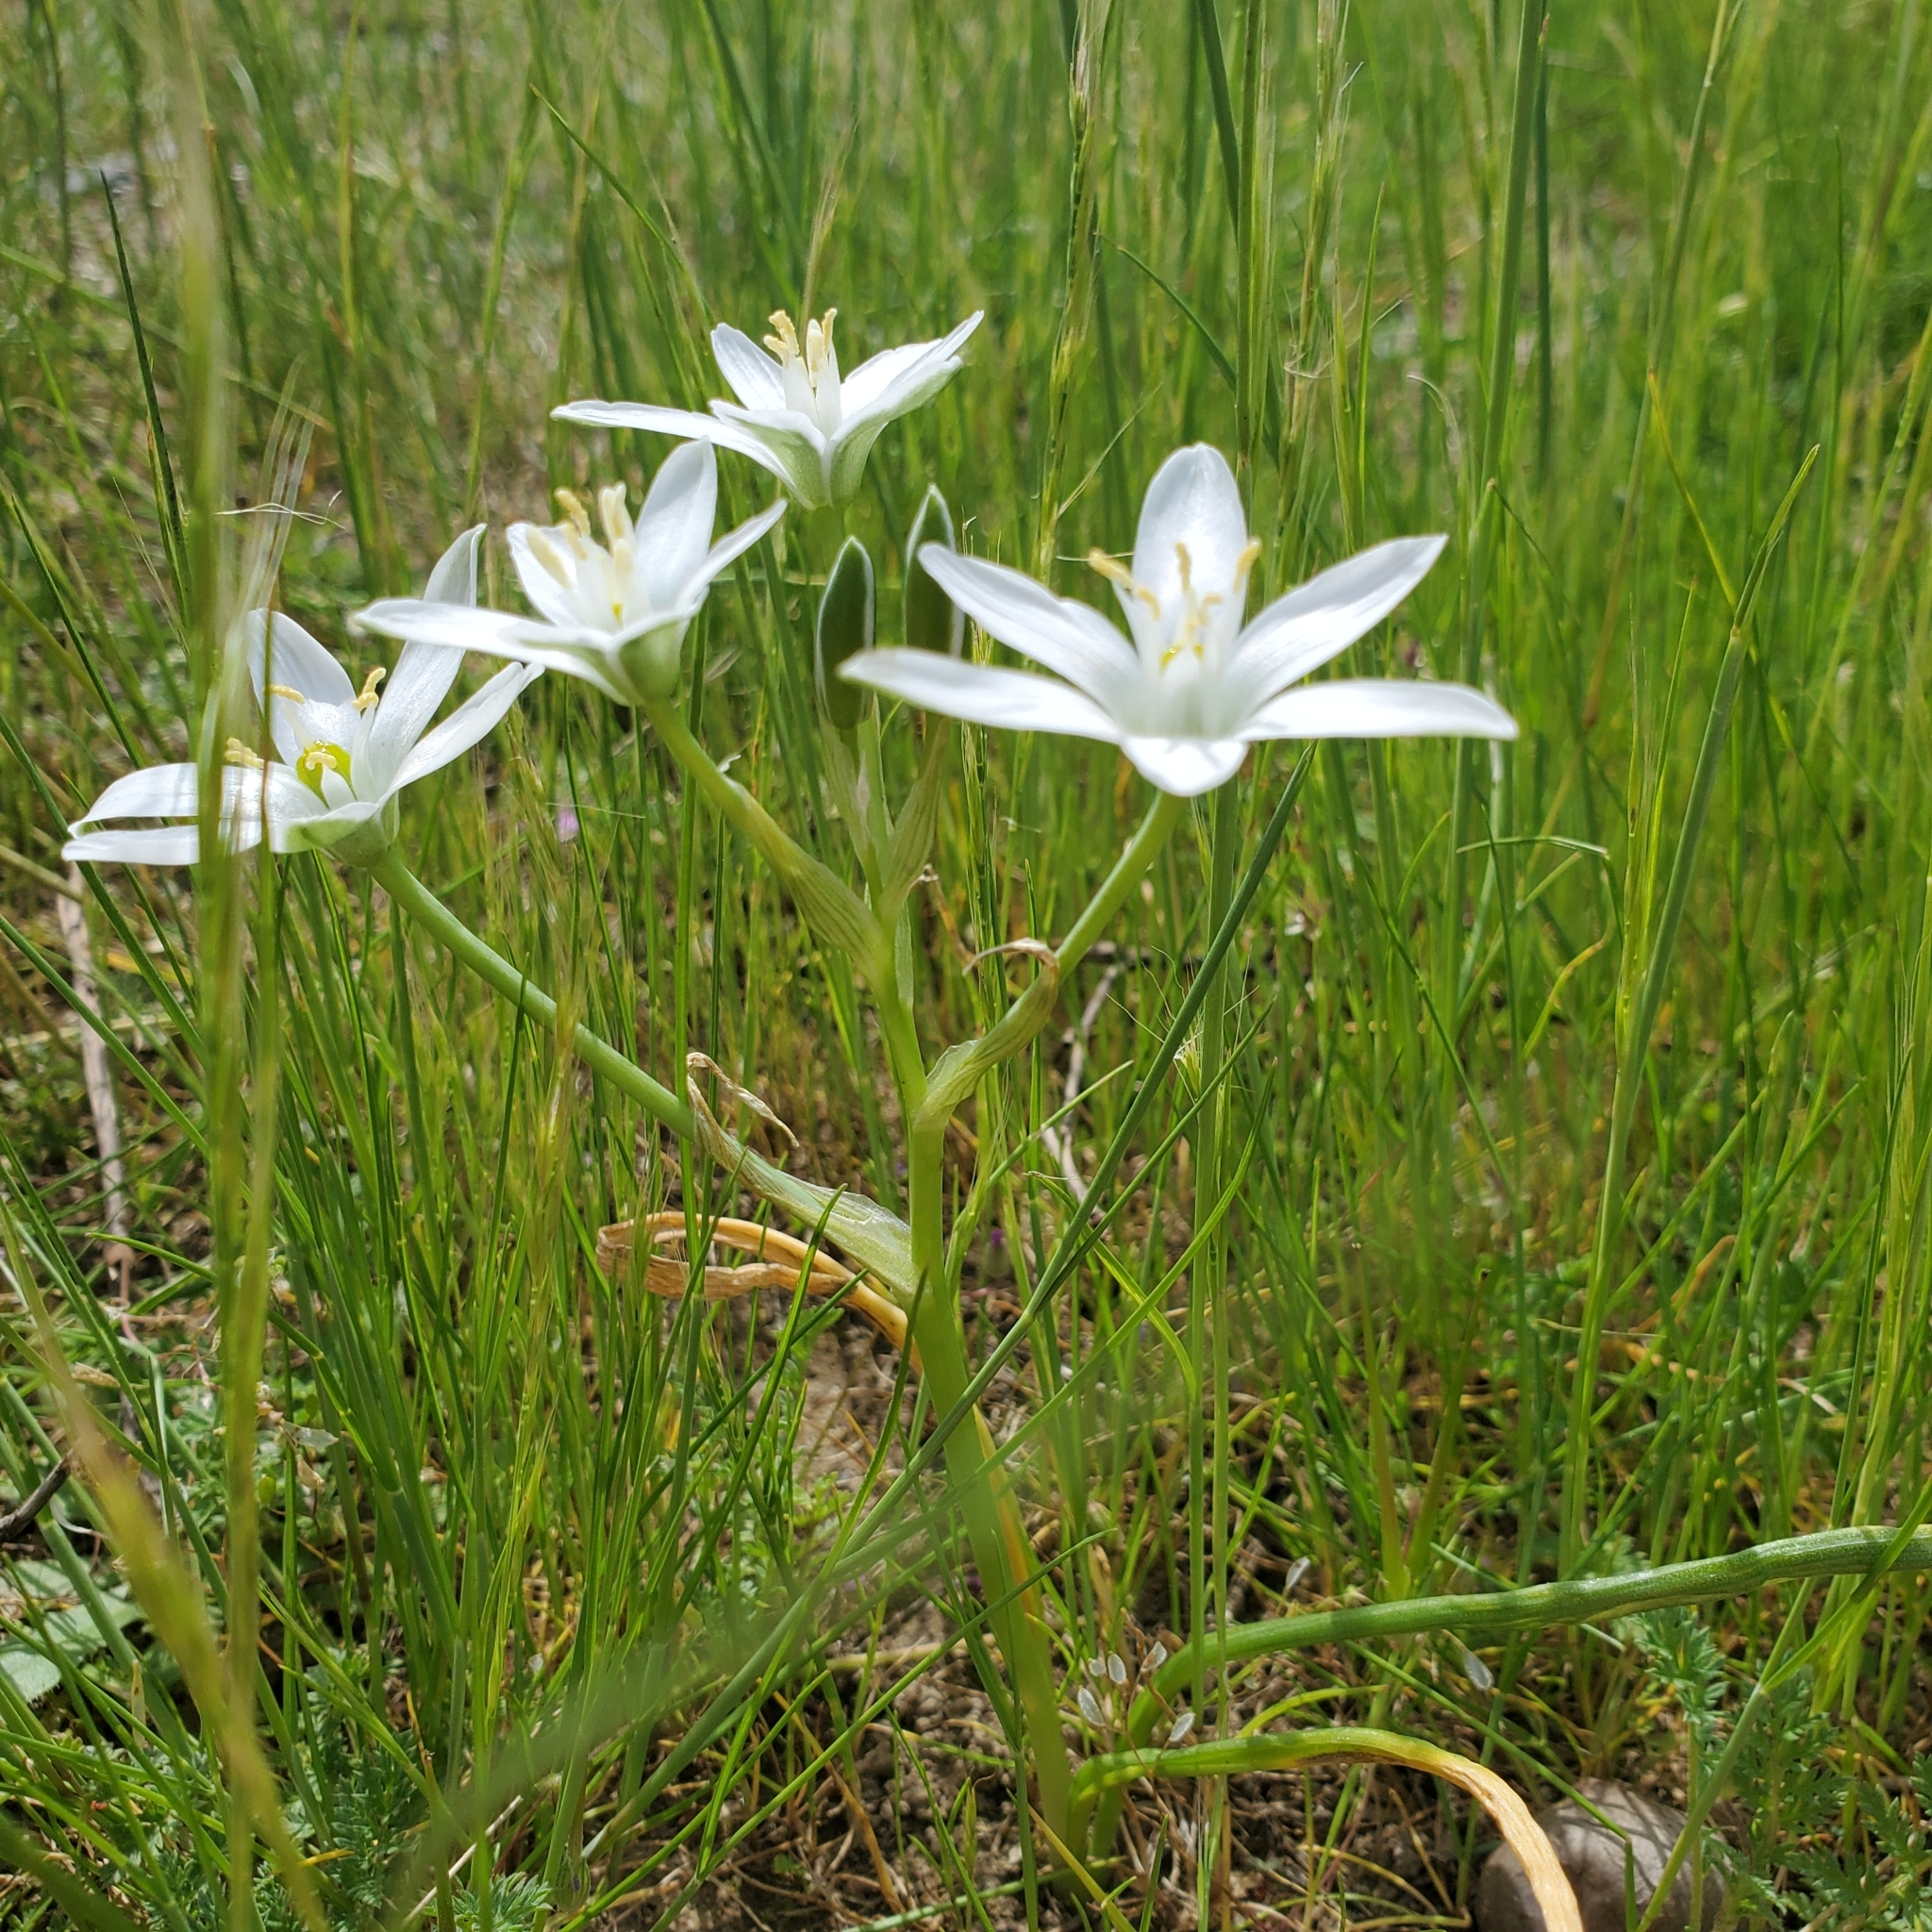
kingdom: Plantae
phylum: Tracheophyta
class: Liliopsida
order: Asparagales
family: Asparagaceae
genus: Ornithogalum
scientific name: Ornithogalum umbellatum
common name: Garden star-of-bethlehem
